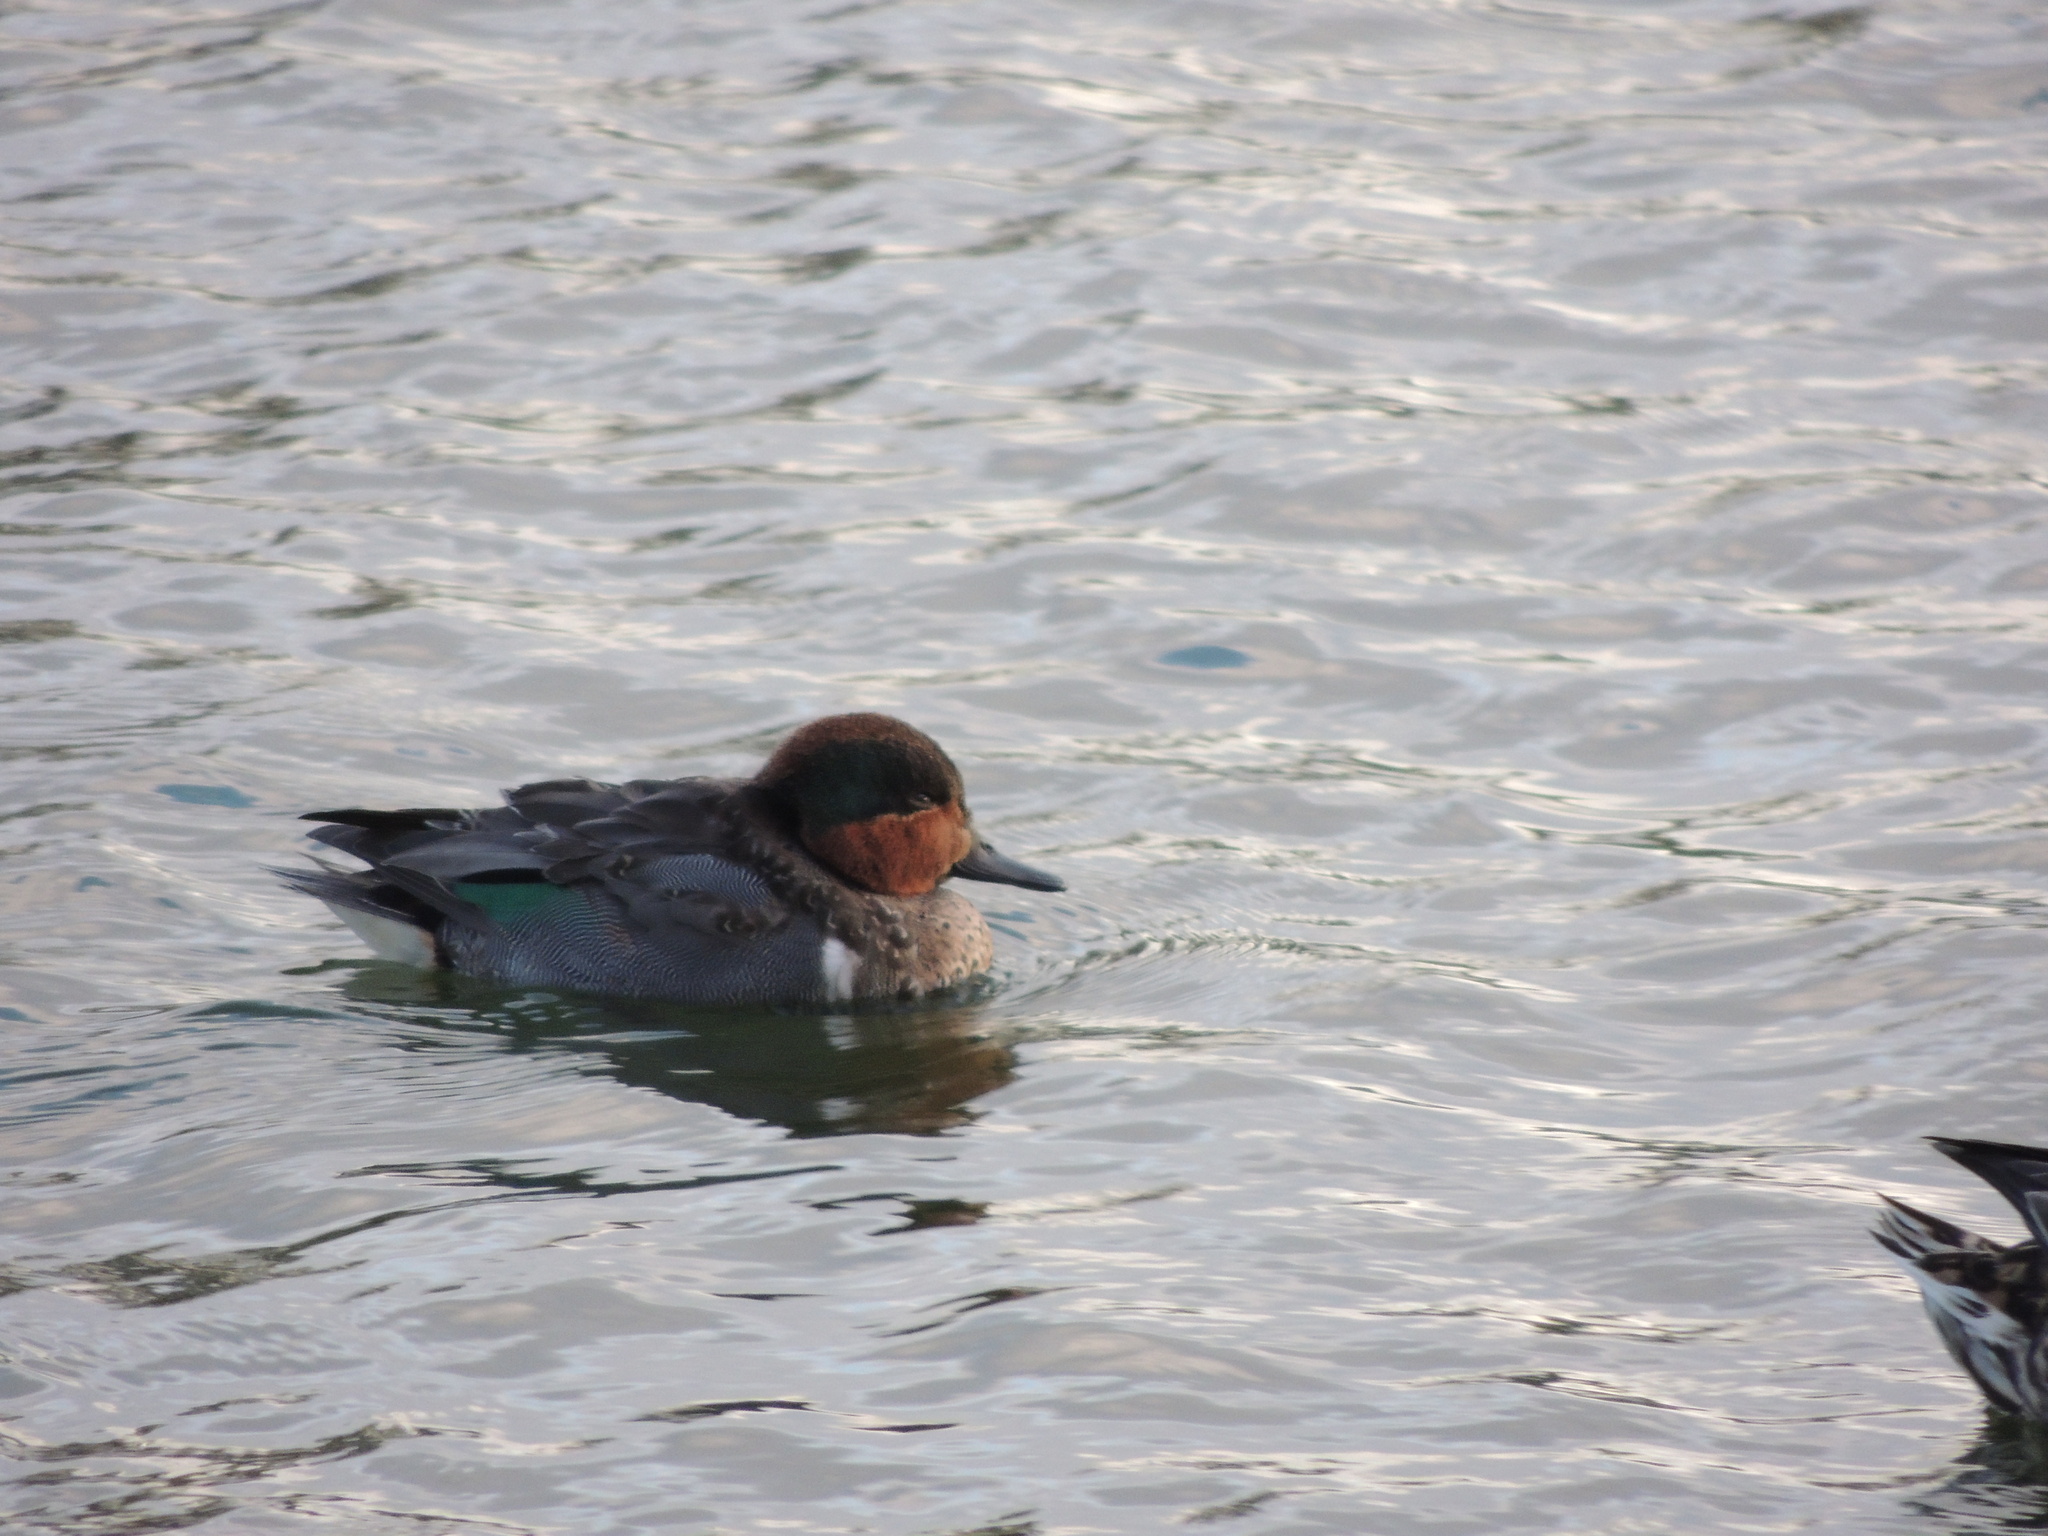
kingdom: Animalia
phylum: Chordata
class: Aves
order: Anseriformes
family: Anatidae
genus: Anas
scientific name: Anas crecca
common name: Eurasian teal
